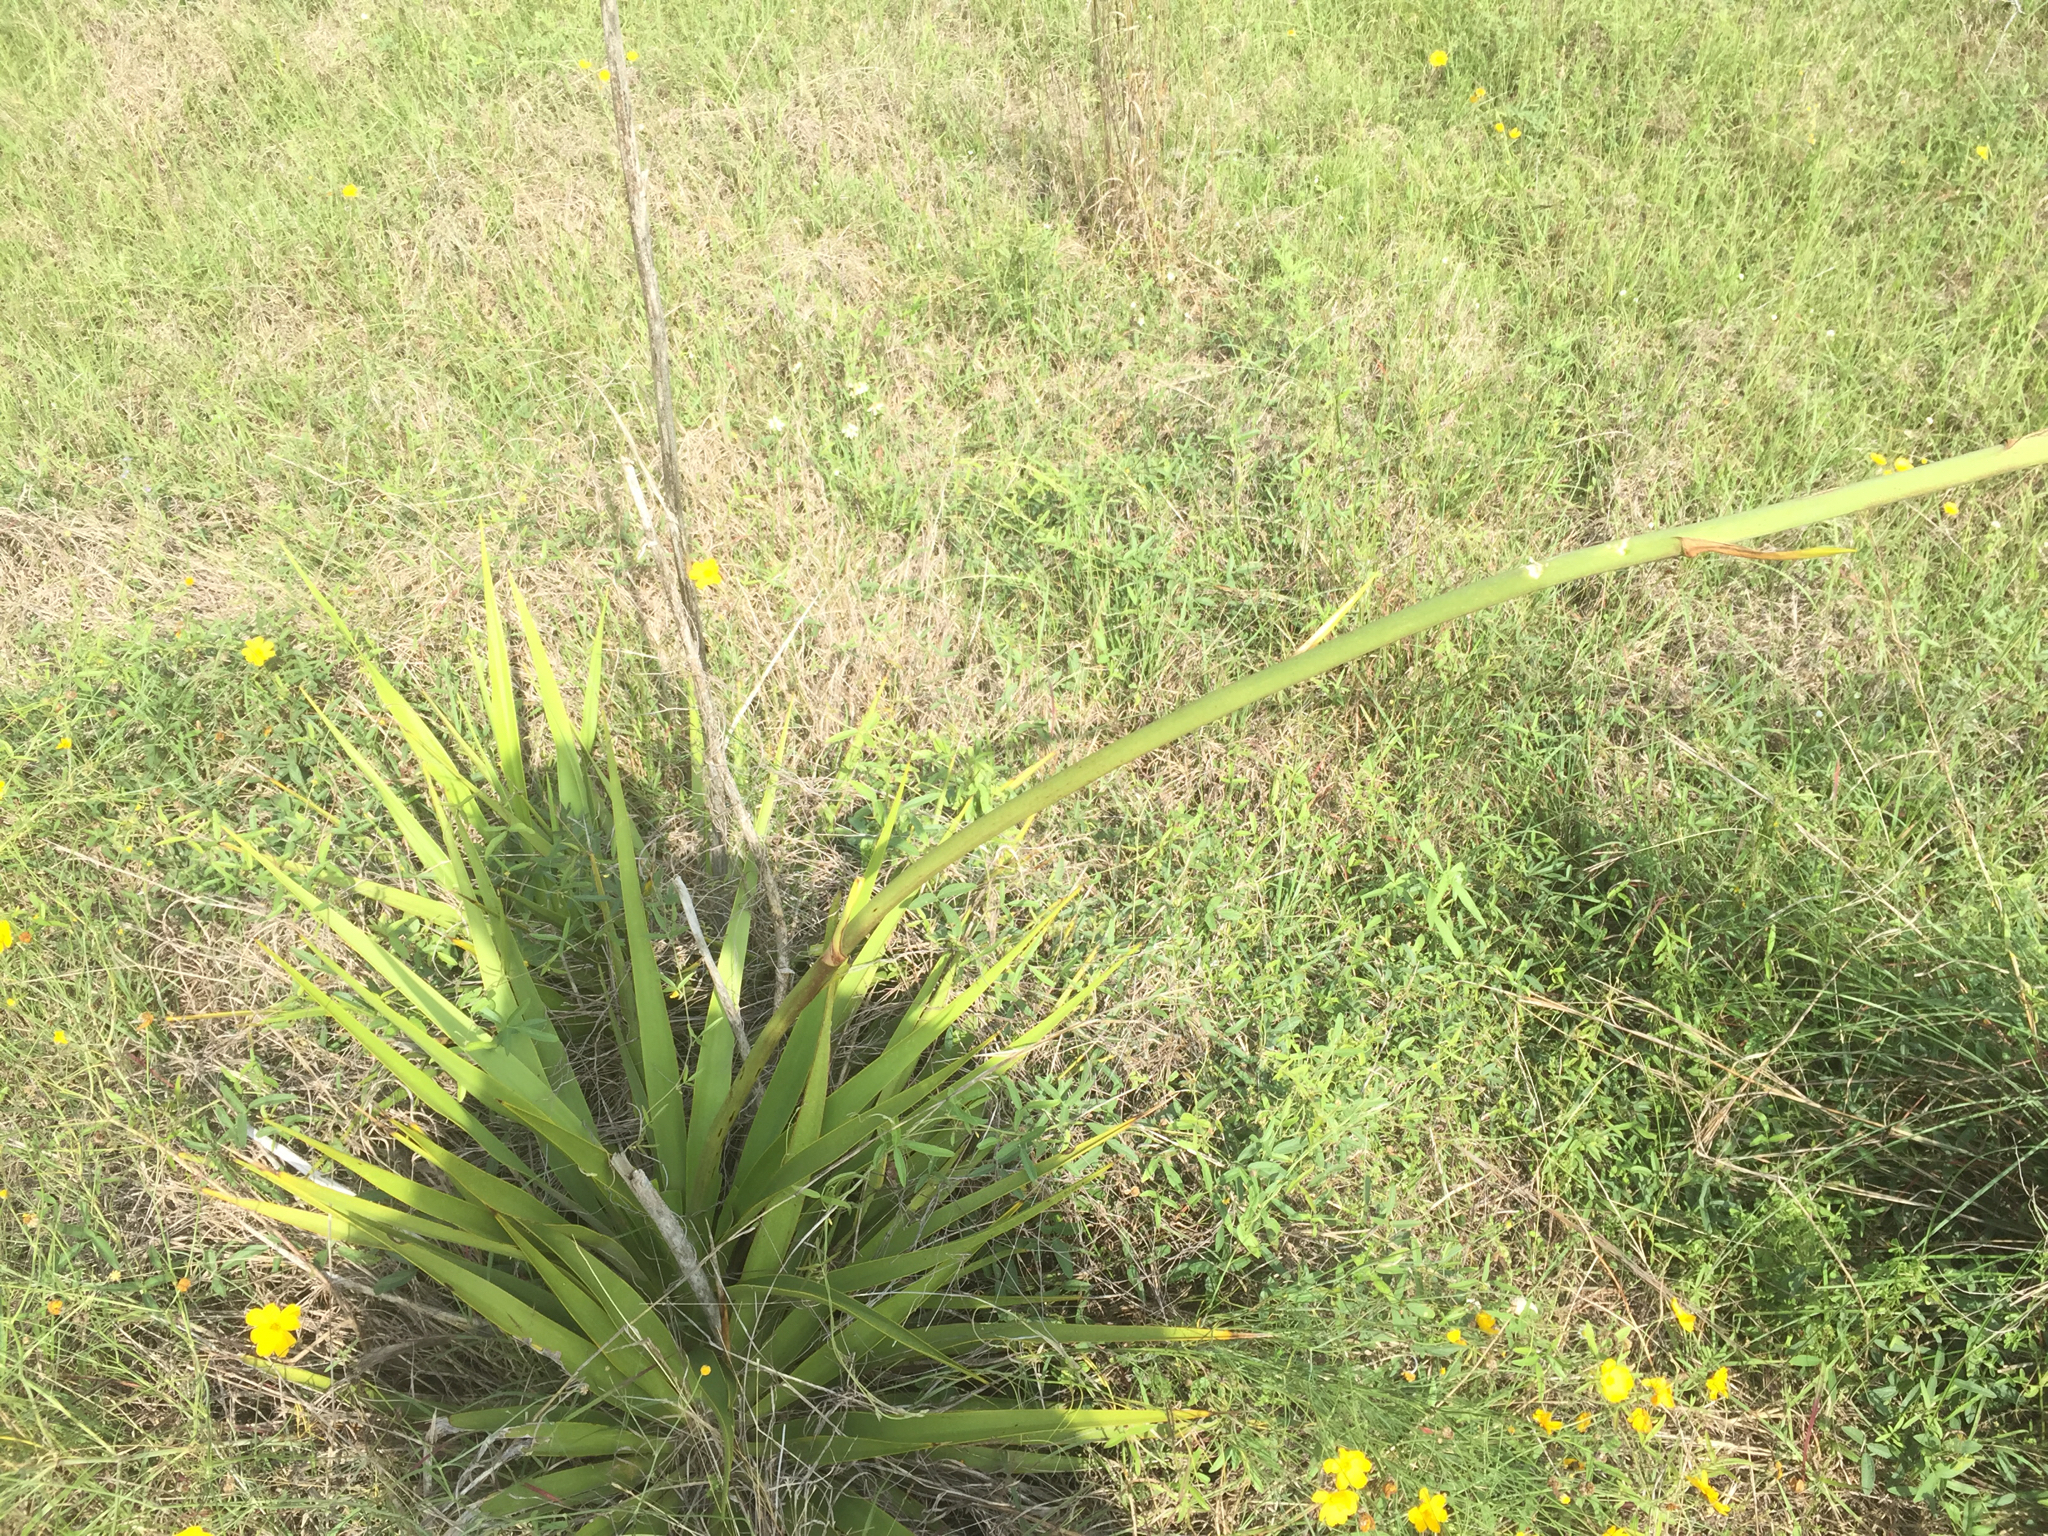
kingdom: Plantae
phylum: Tracheophyta
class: Liliopsida
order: Asparagales
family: Asparagaceae
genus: Yucca
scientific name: Yucca rupicola
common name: Twisted-leaf spanish-dagger
